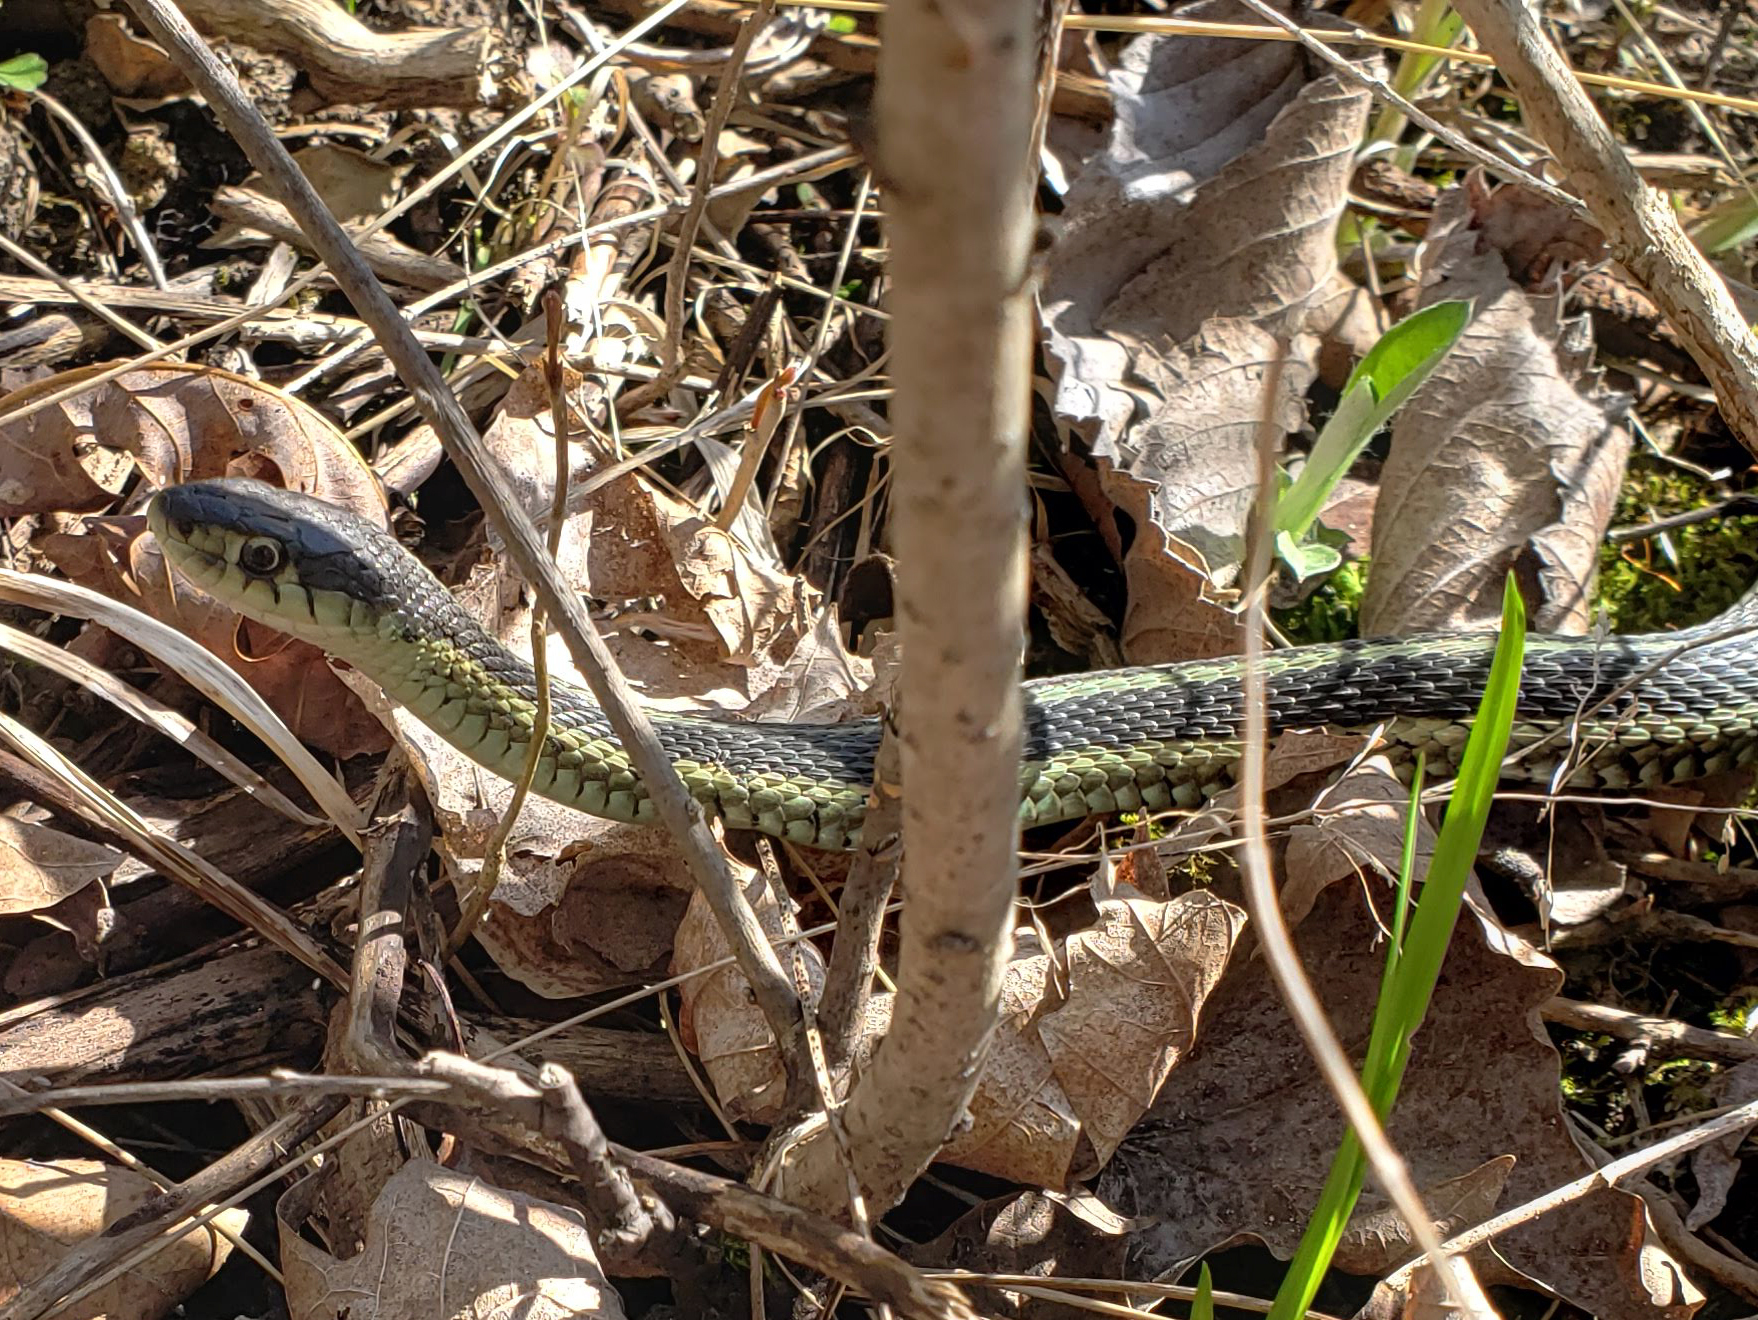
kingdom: Animalia
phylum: Chordata
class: Squamata
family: Colubridae
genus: Thamnophis
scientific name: Thamnophis sirtalis
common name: Common garter snake
